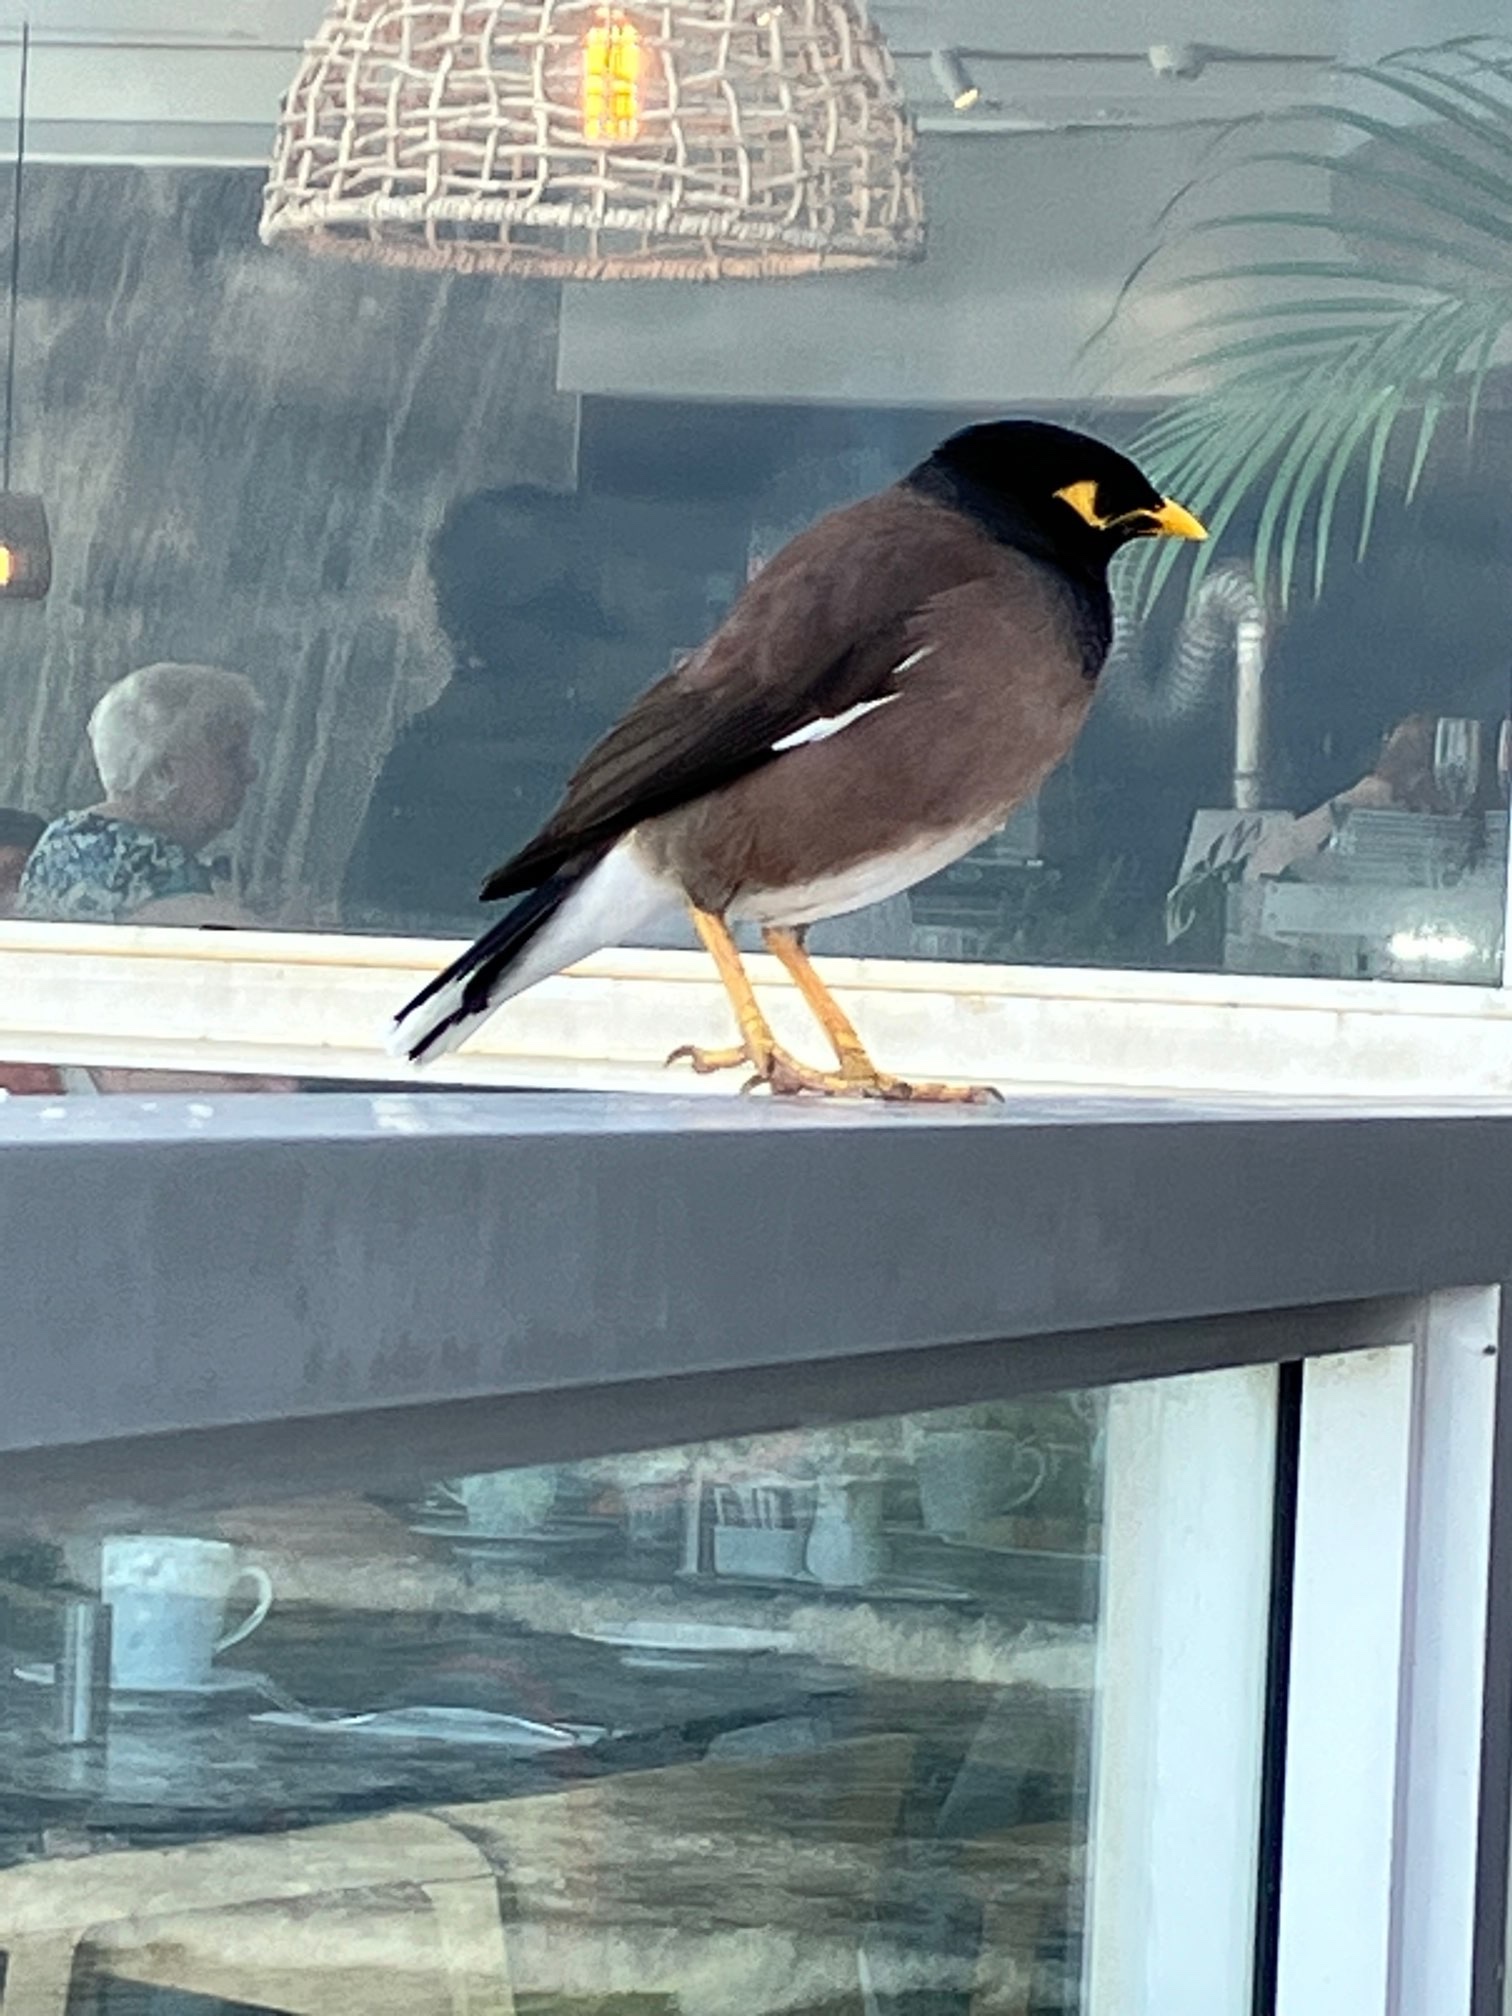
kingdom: Animalia
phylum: Chordata
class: Aves
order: Passeriformes
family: Sturnidae
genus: Acridotheres
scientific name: Acridotheres tristis
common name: Common myna
